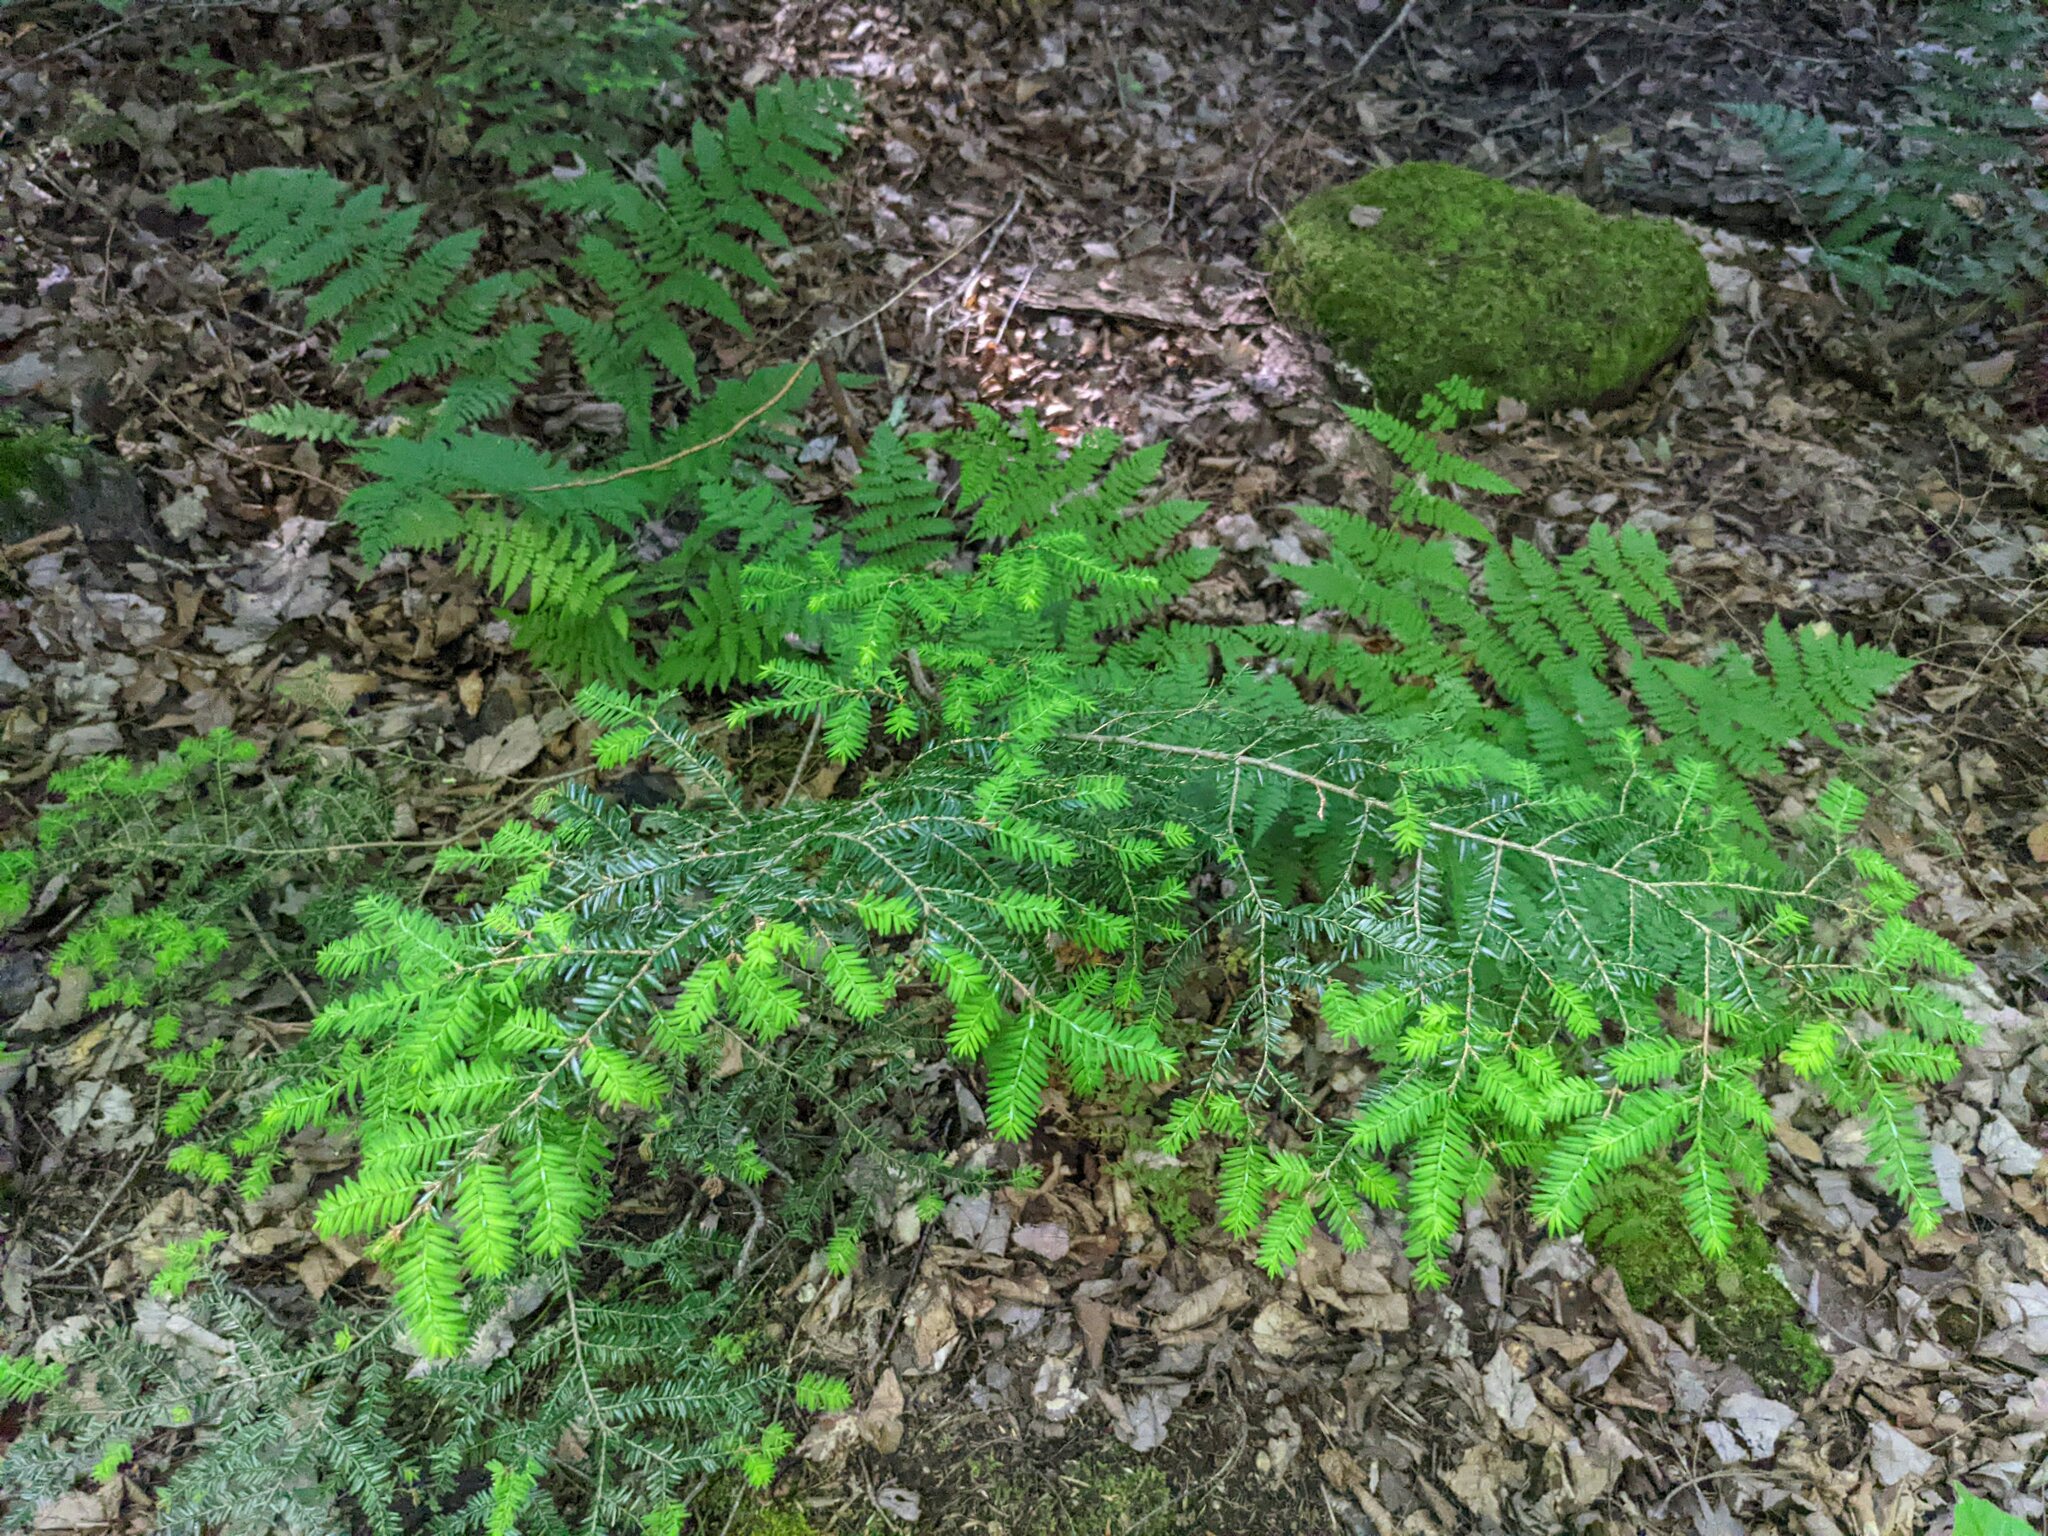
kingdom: Plantae
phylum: Tracheophyta
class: Pinopsida
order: Pinales
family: Pinaceae
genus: Tsuga
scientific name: Tsuga canadensis
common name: Eastern hemlock
